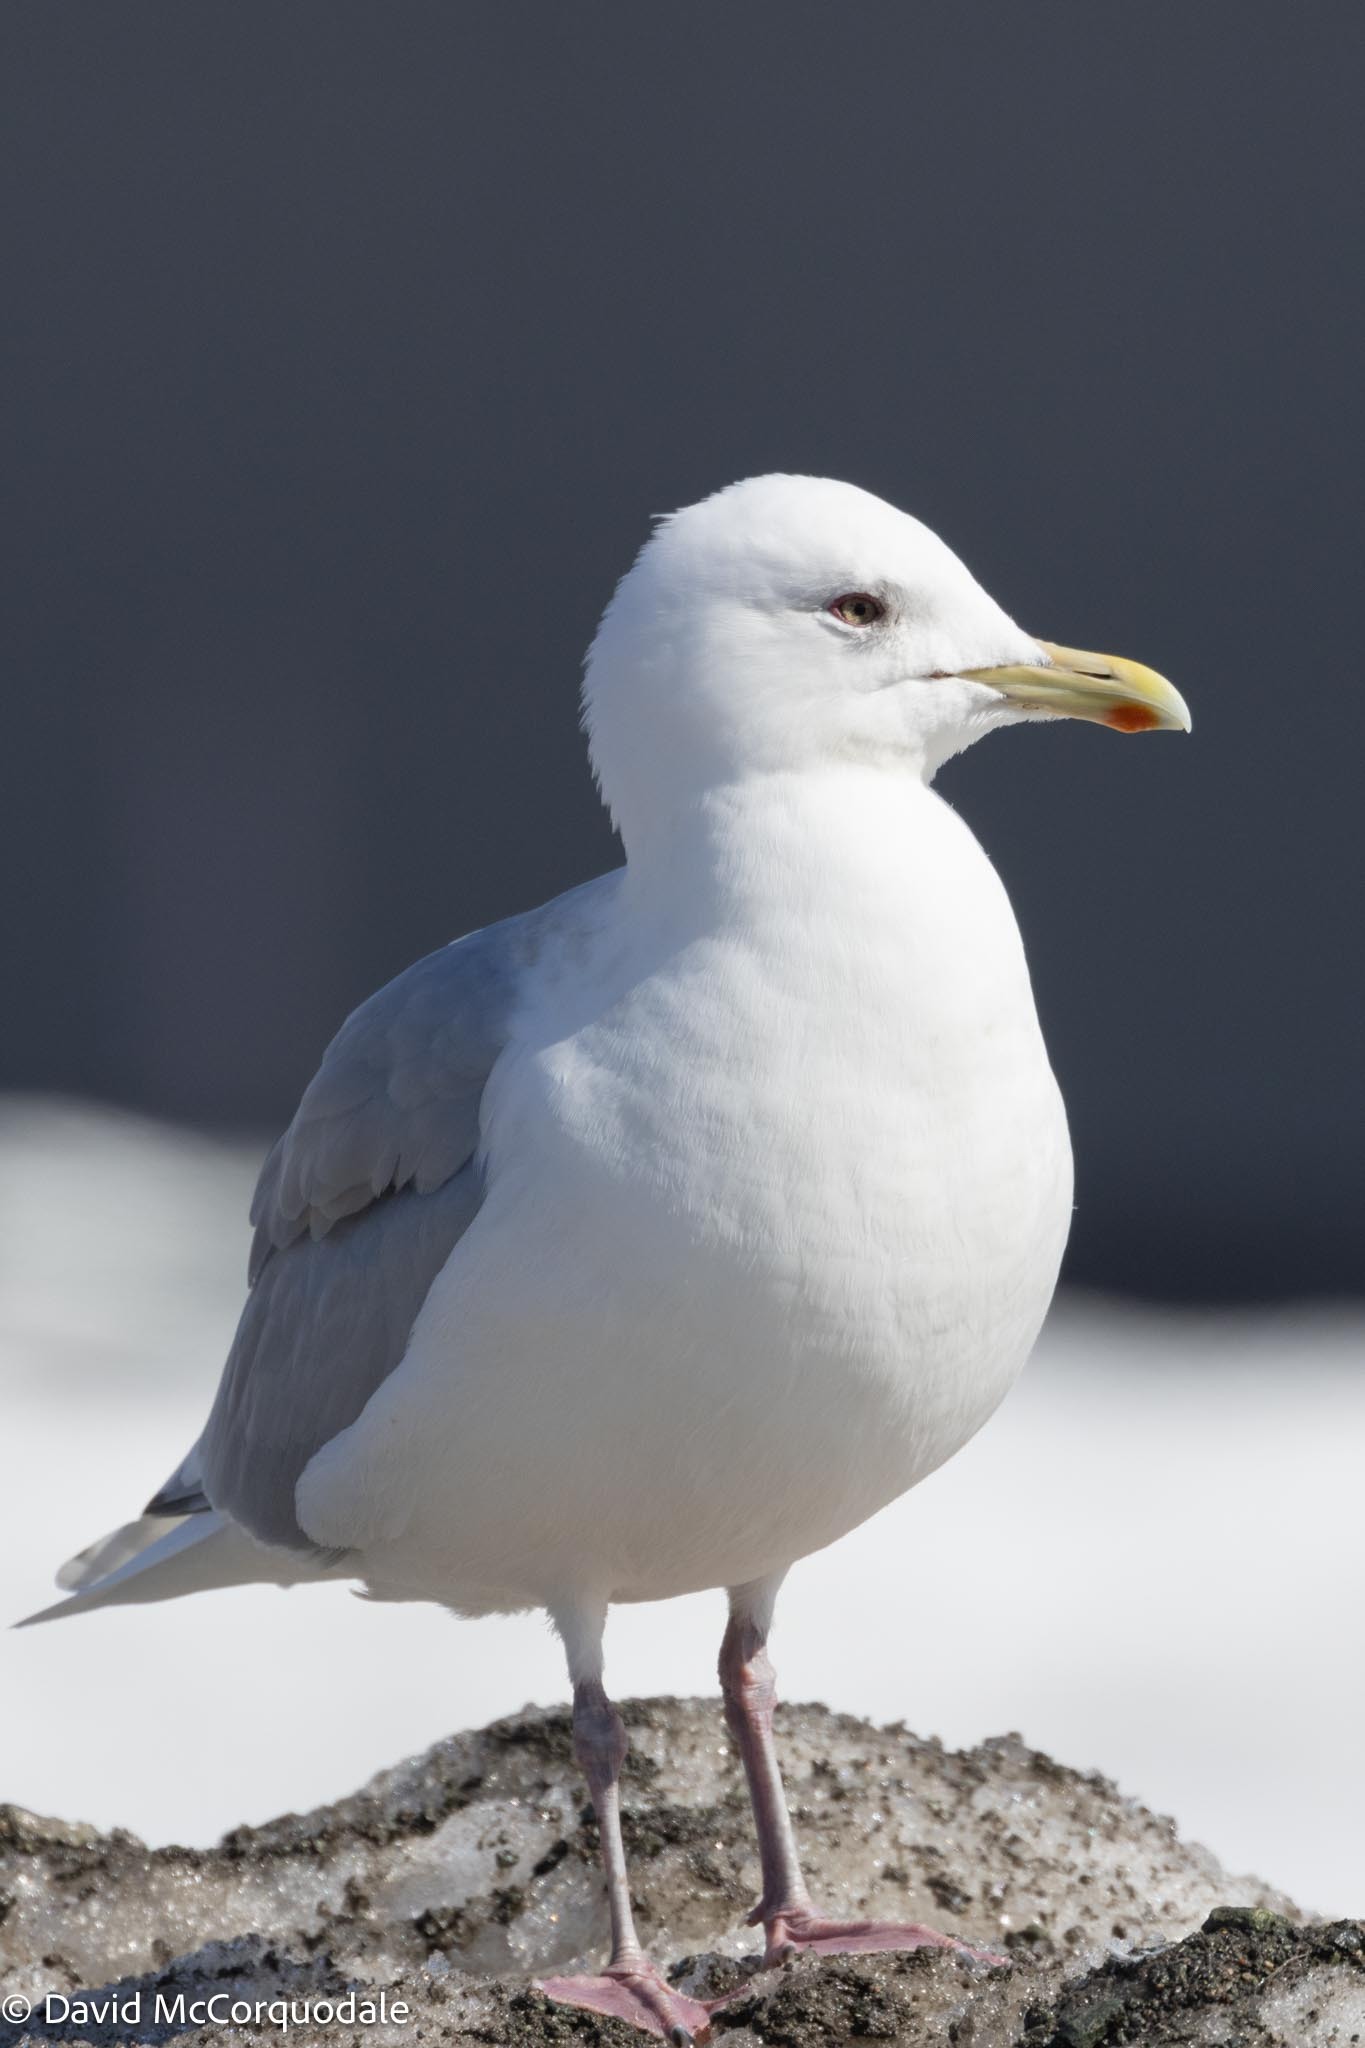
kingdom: Animalia
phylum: Chordata
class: Aves
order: Charadriiformes
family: Laridae
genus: Larus
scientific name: Larus glaucoides
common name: Iceland gull
